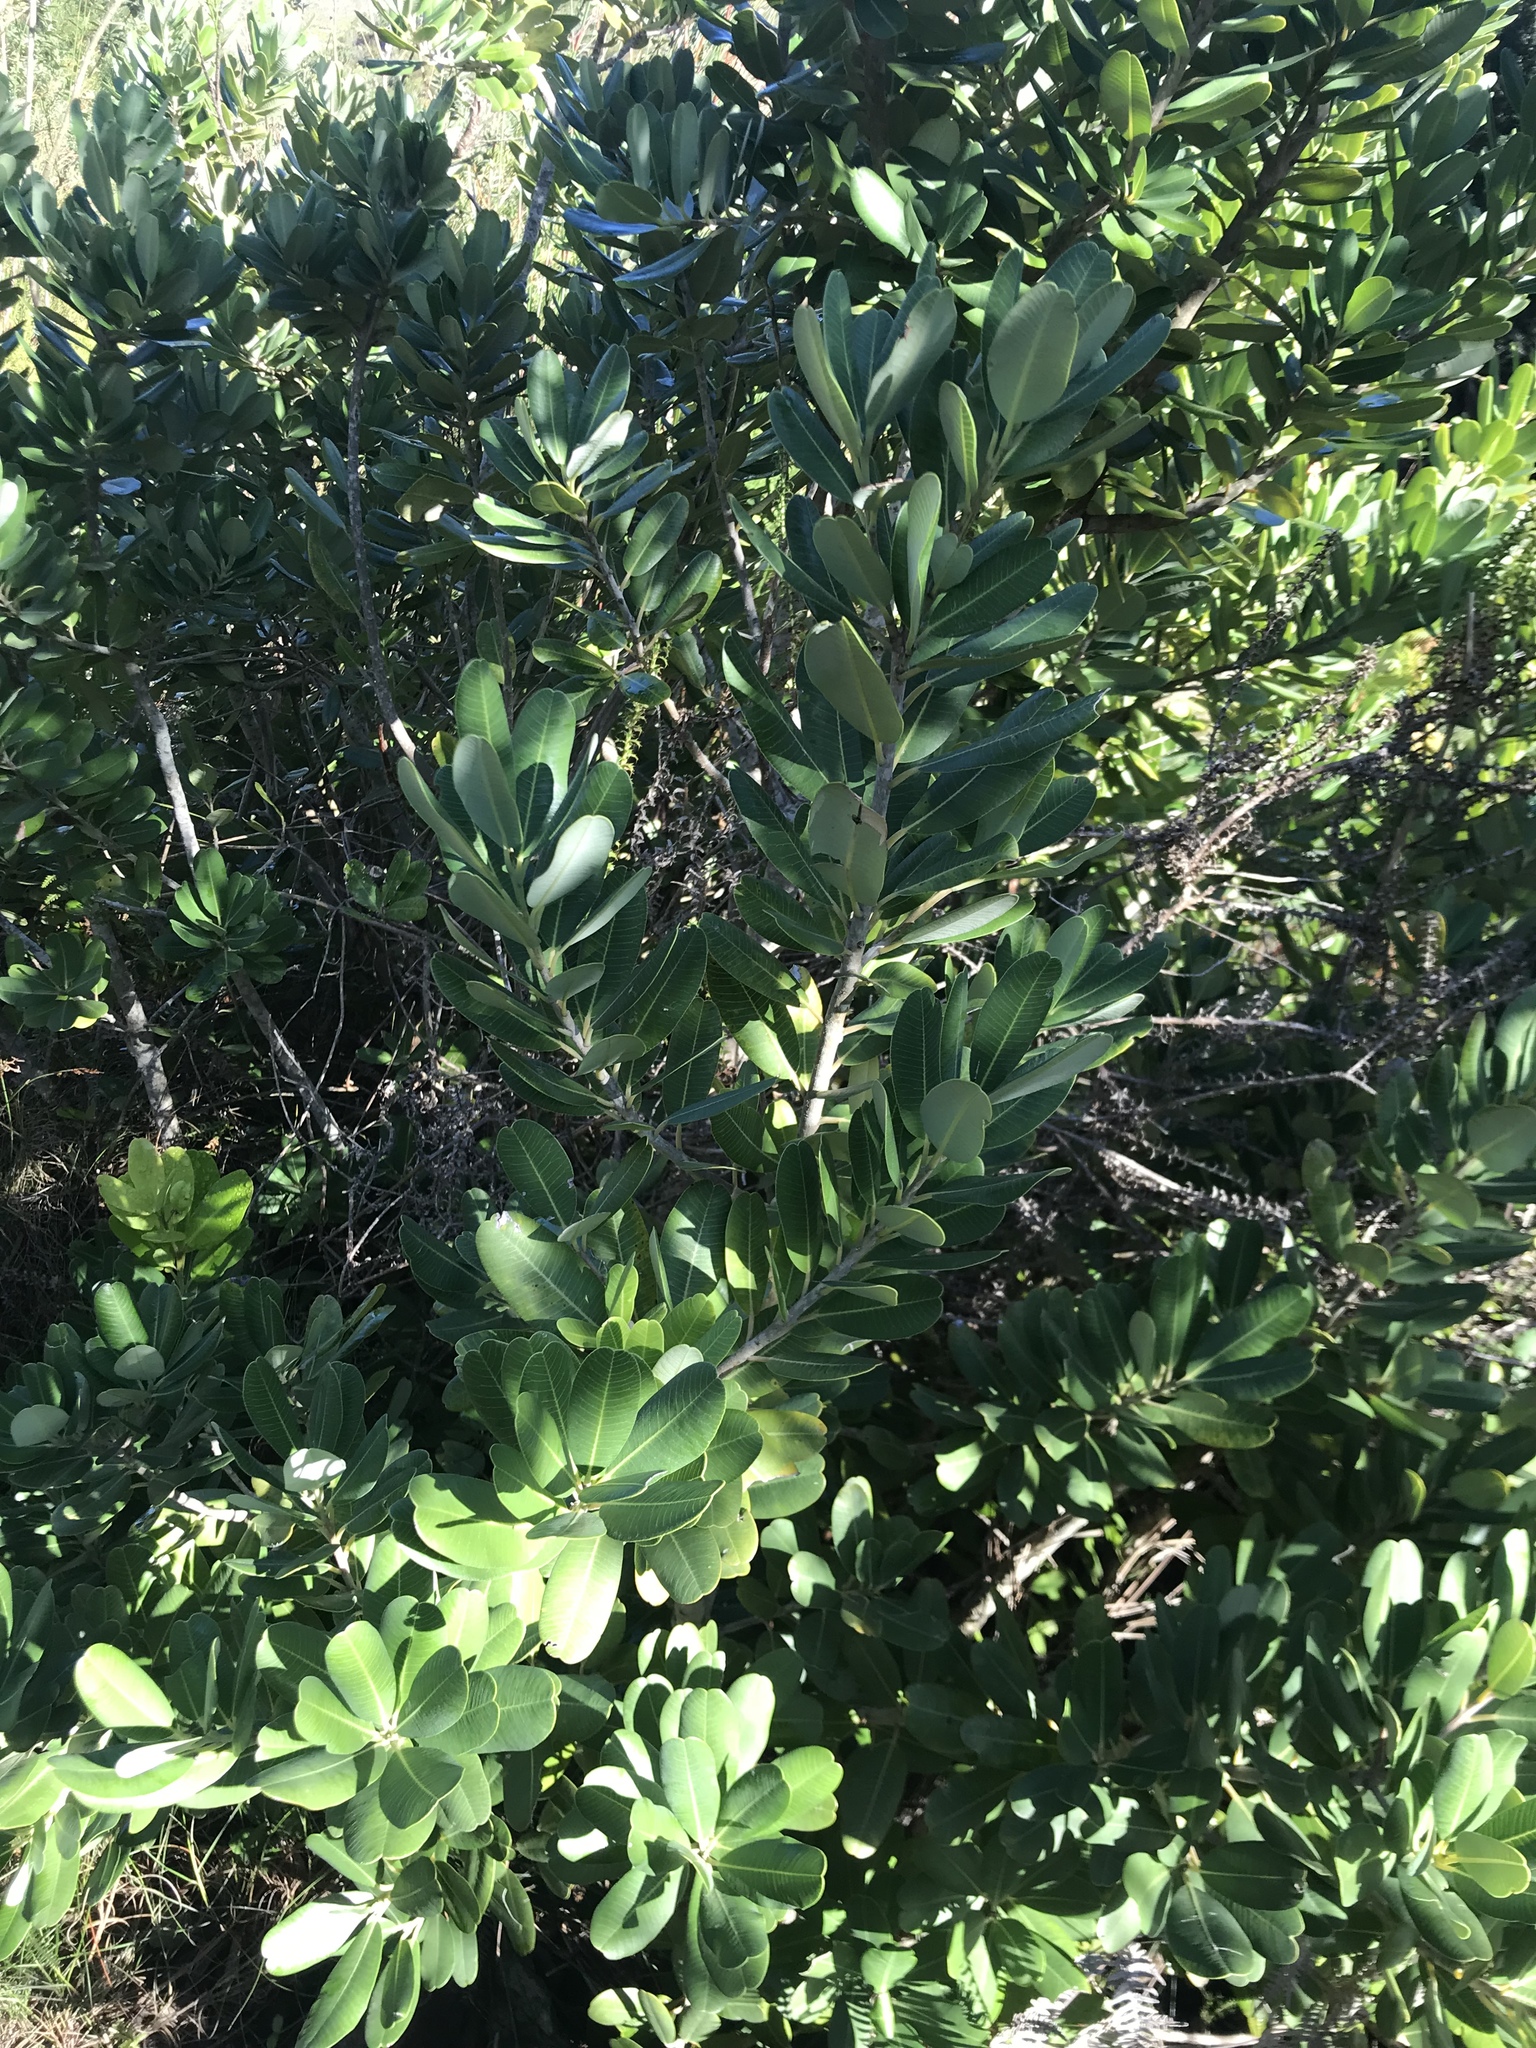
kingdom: Plantae
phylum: Tracheophyta
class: Magnoliopsida
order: Sapindales
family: Anacardiaceae
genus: Heeria
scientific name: Heeria argentea
